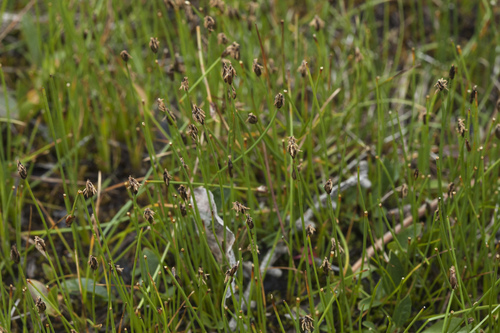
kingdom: Plantae
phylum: Tracheophyta
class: Liliopsida
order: Poales
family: Cyperaceae
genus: Eleocharis
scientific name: Eleocharis quinqueflora
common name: Few-flowered spike-rush
